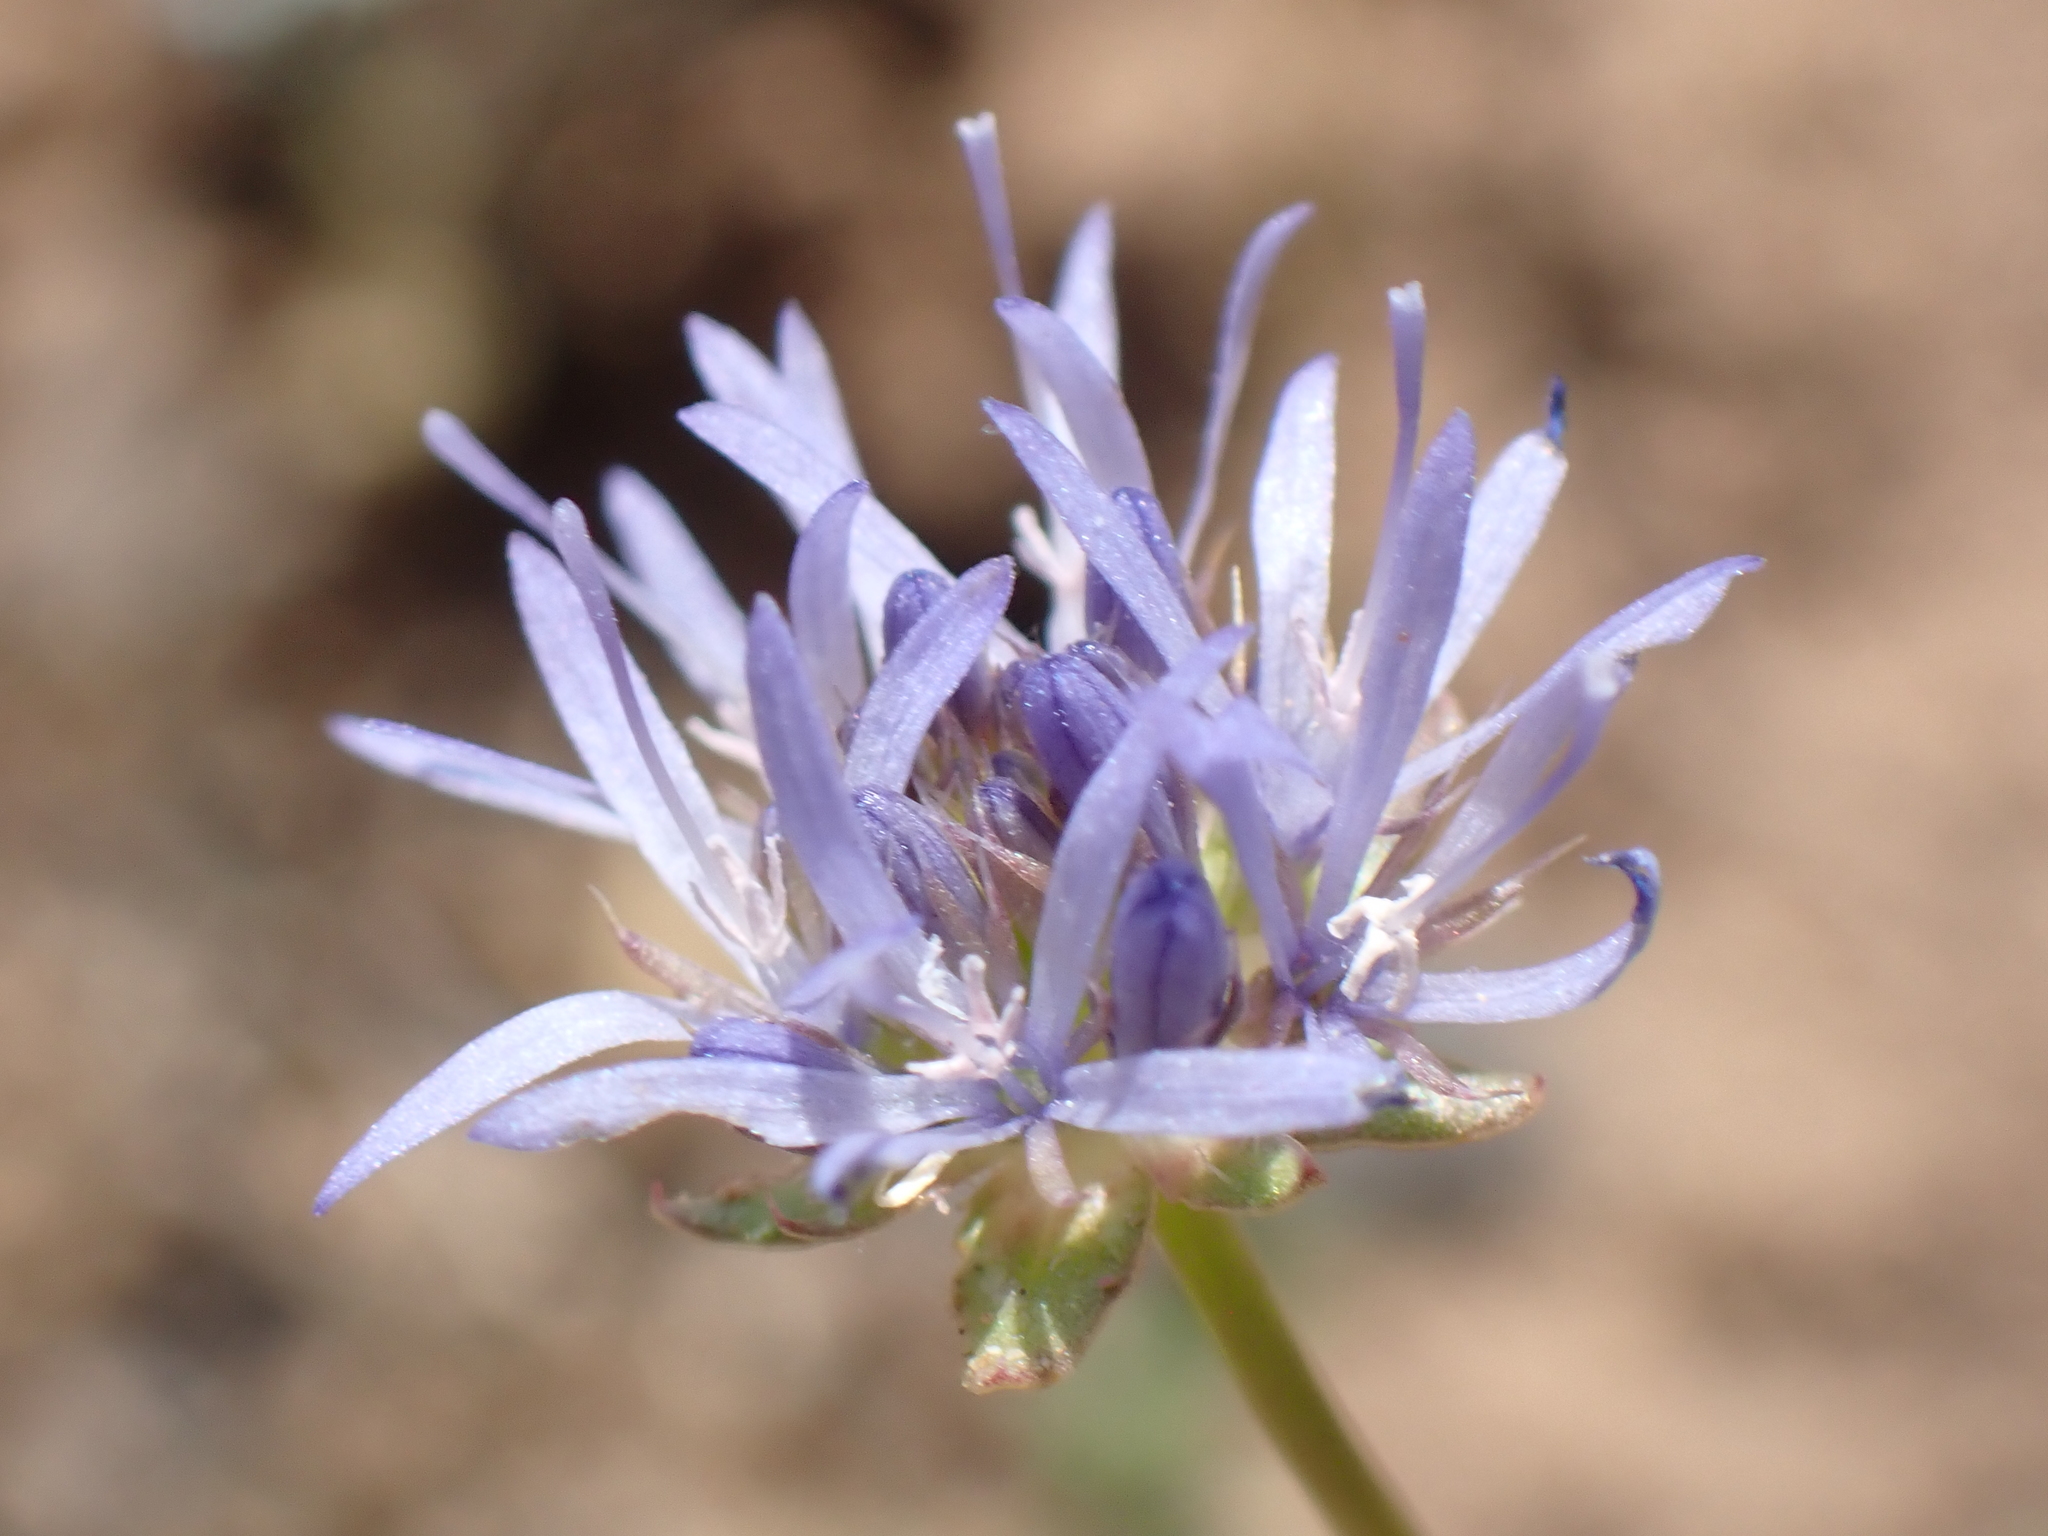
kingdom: Plantae
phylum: Tracheophyta
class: Magnoliopsida
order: Asterales
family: Campanulaceae
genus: Jasione
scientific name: Jasione montana
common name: Sheep's-bit
